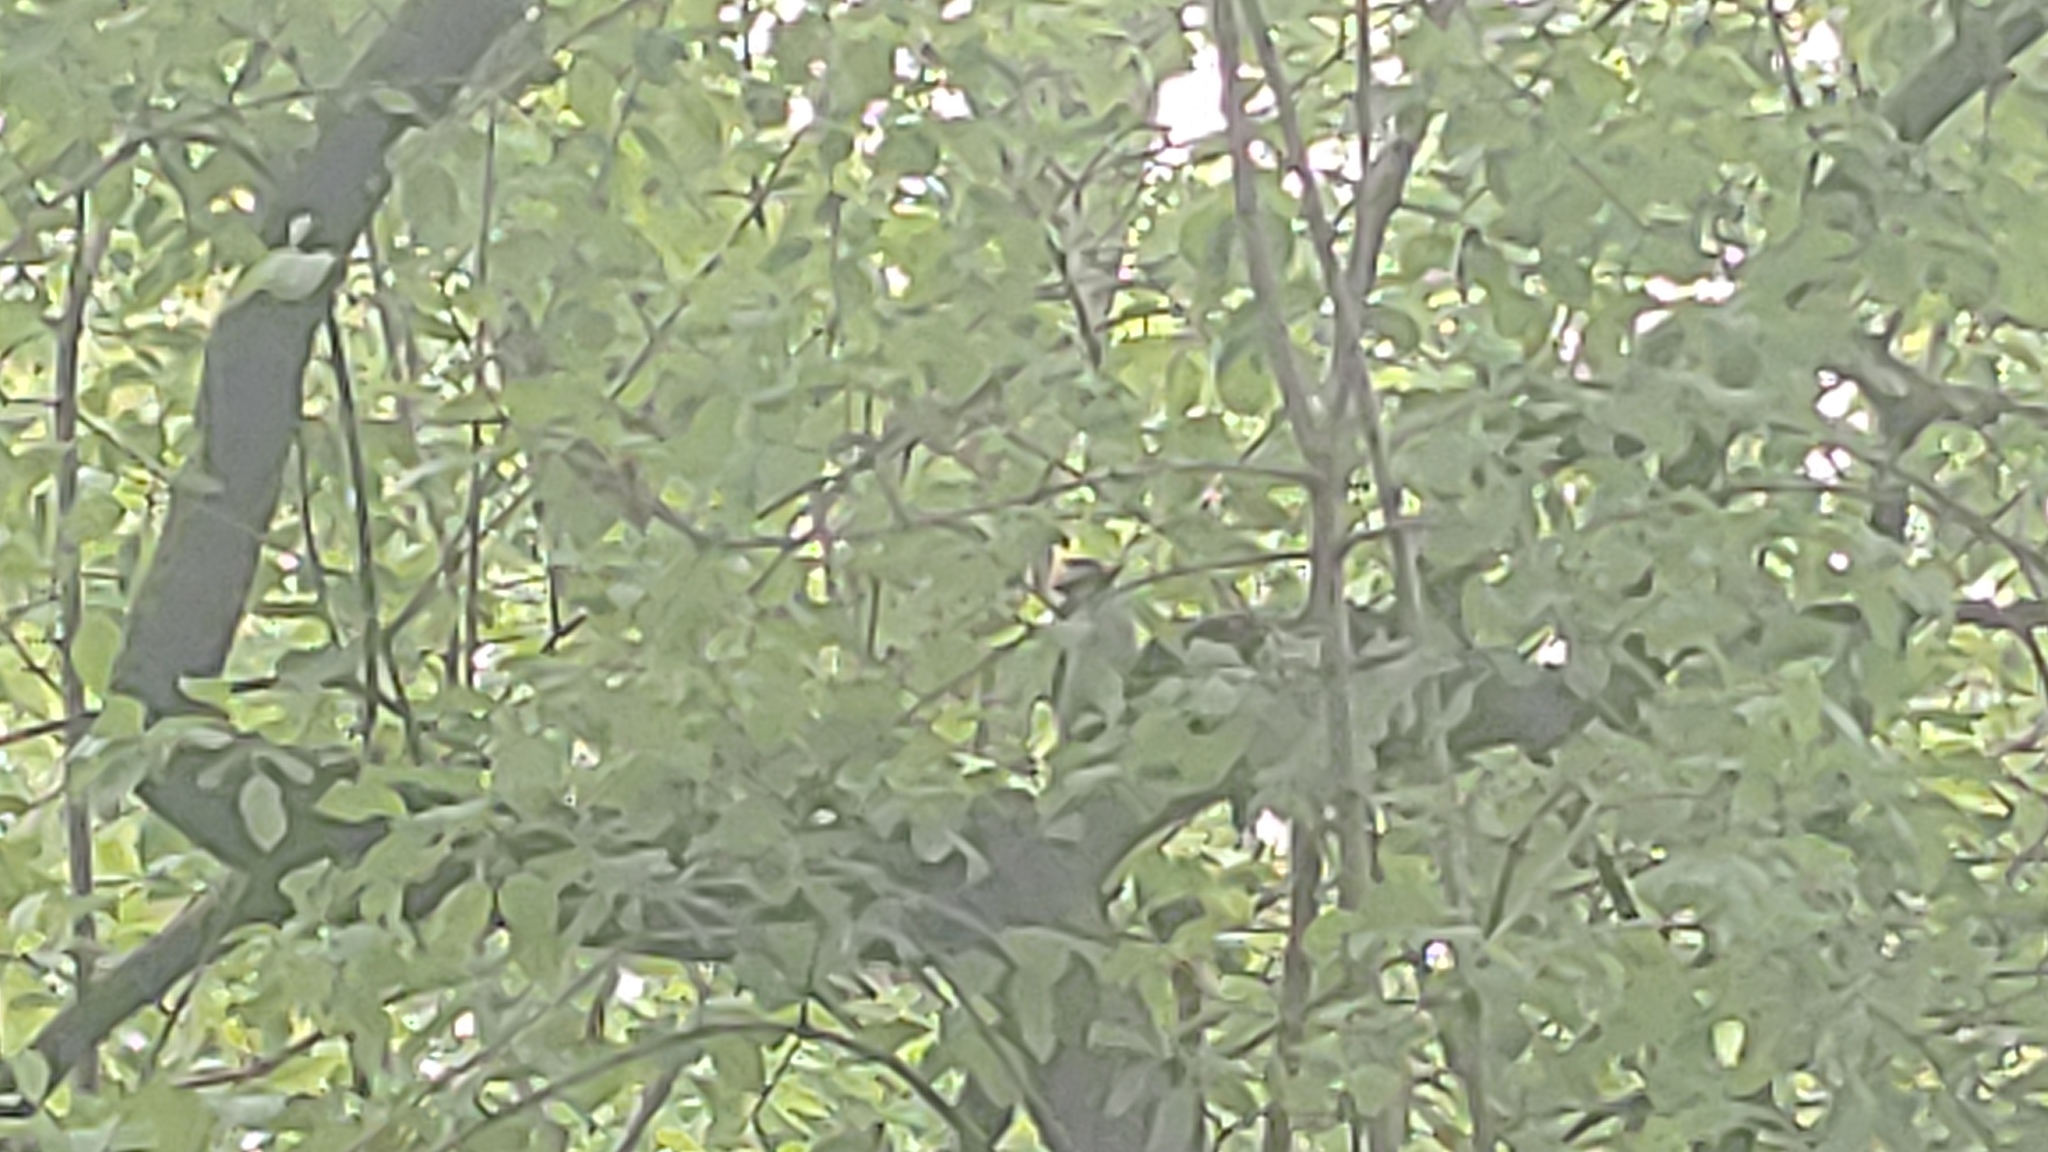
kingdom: Animalia
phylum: Chordata
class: Aves
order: Piciformes
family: Picidae
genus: Dryobates
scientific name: Dryobates pubescens
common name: Downy woodpecker
